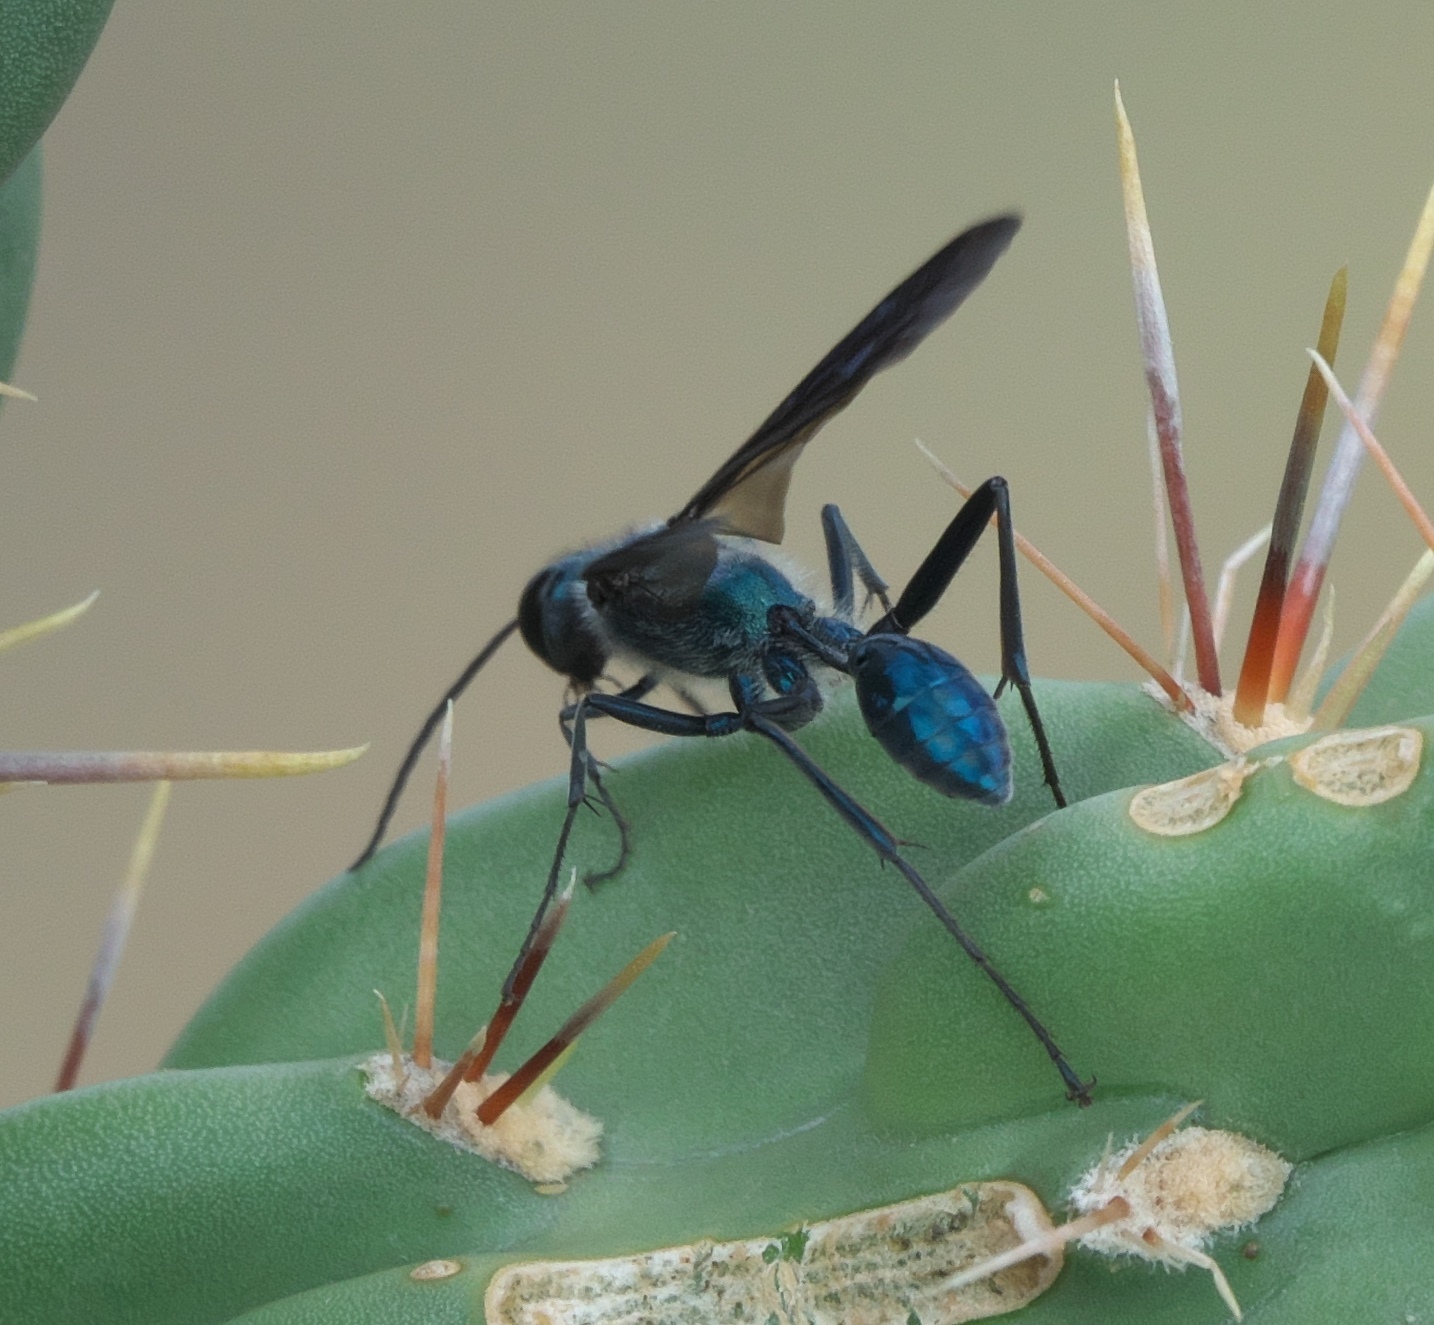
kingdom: Animalia
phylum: Arthropoda
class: Insecta
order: Hymenoptera
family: Sphecidae
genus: Chalybion
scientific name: Chalybion zimmermanni
